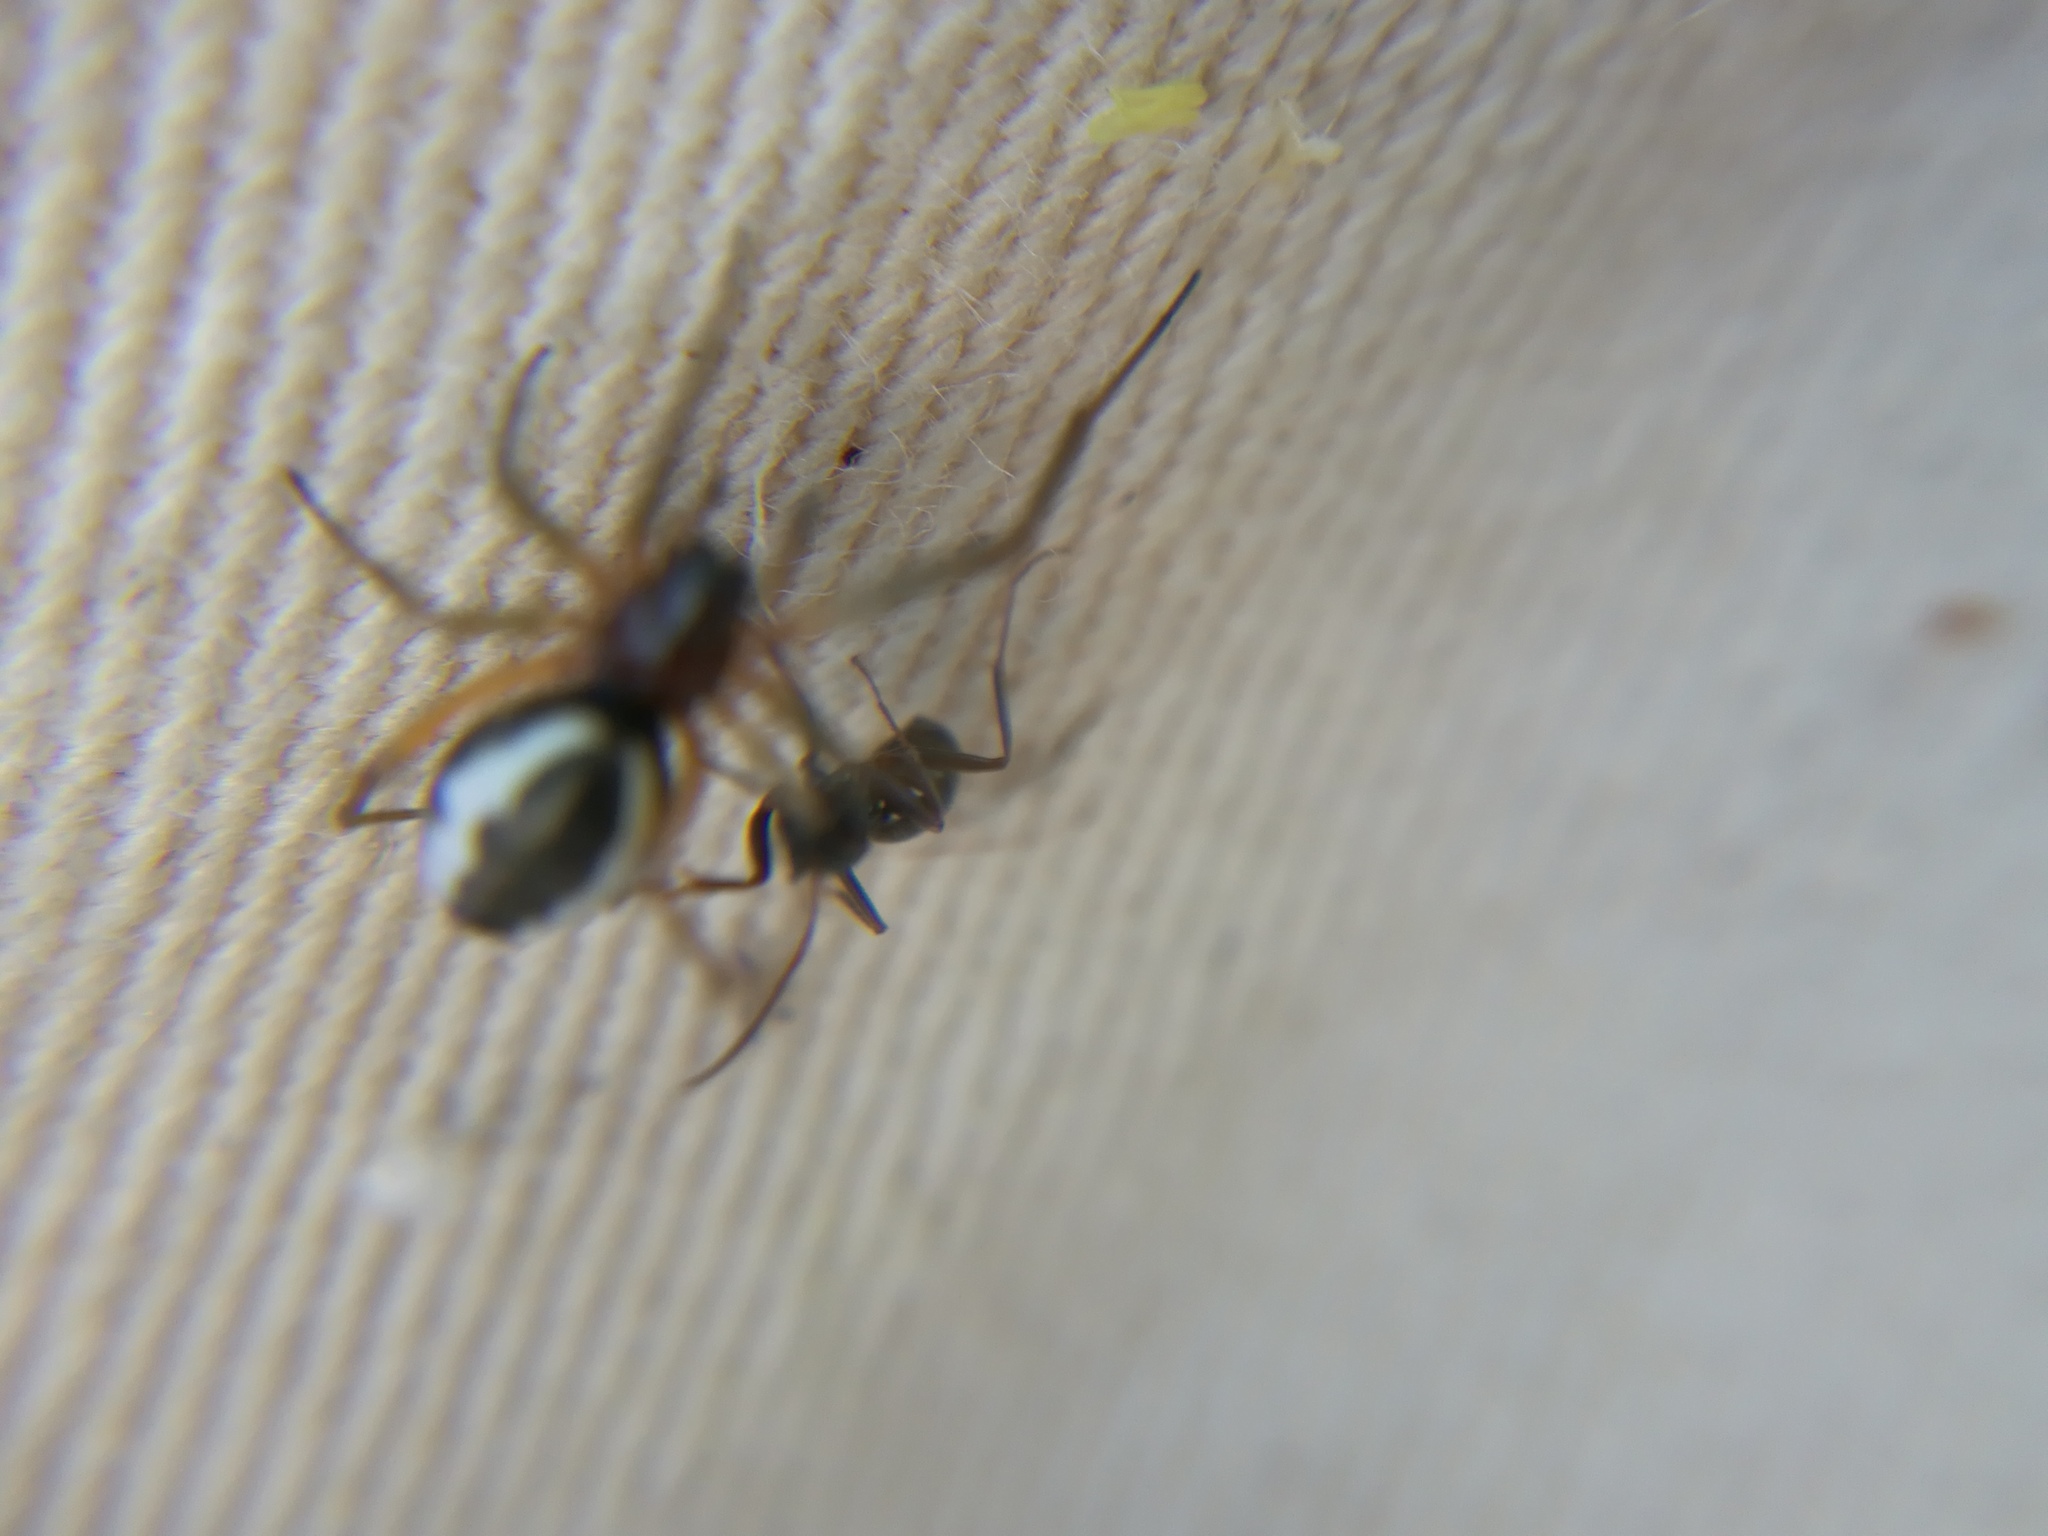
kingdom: Animalia
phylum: Arthropoda
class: Arachnida
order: Araneae
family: Linyphiidae
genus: Frontinellina
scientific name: Frontinellina frutetorum
